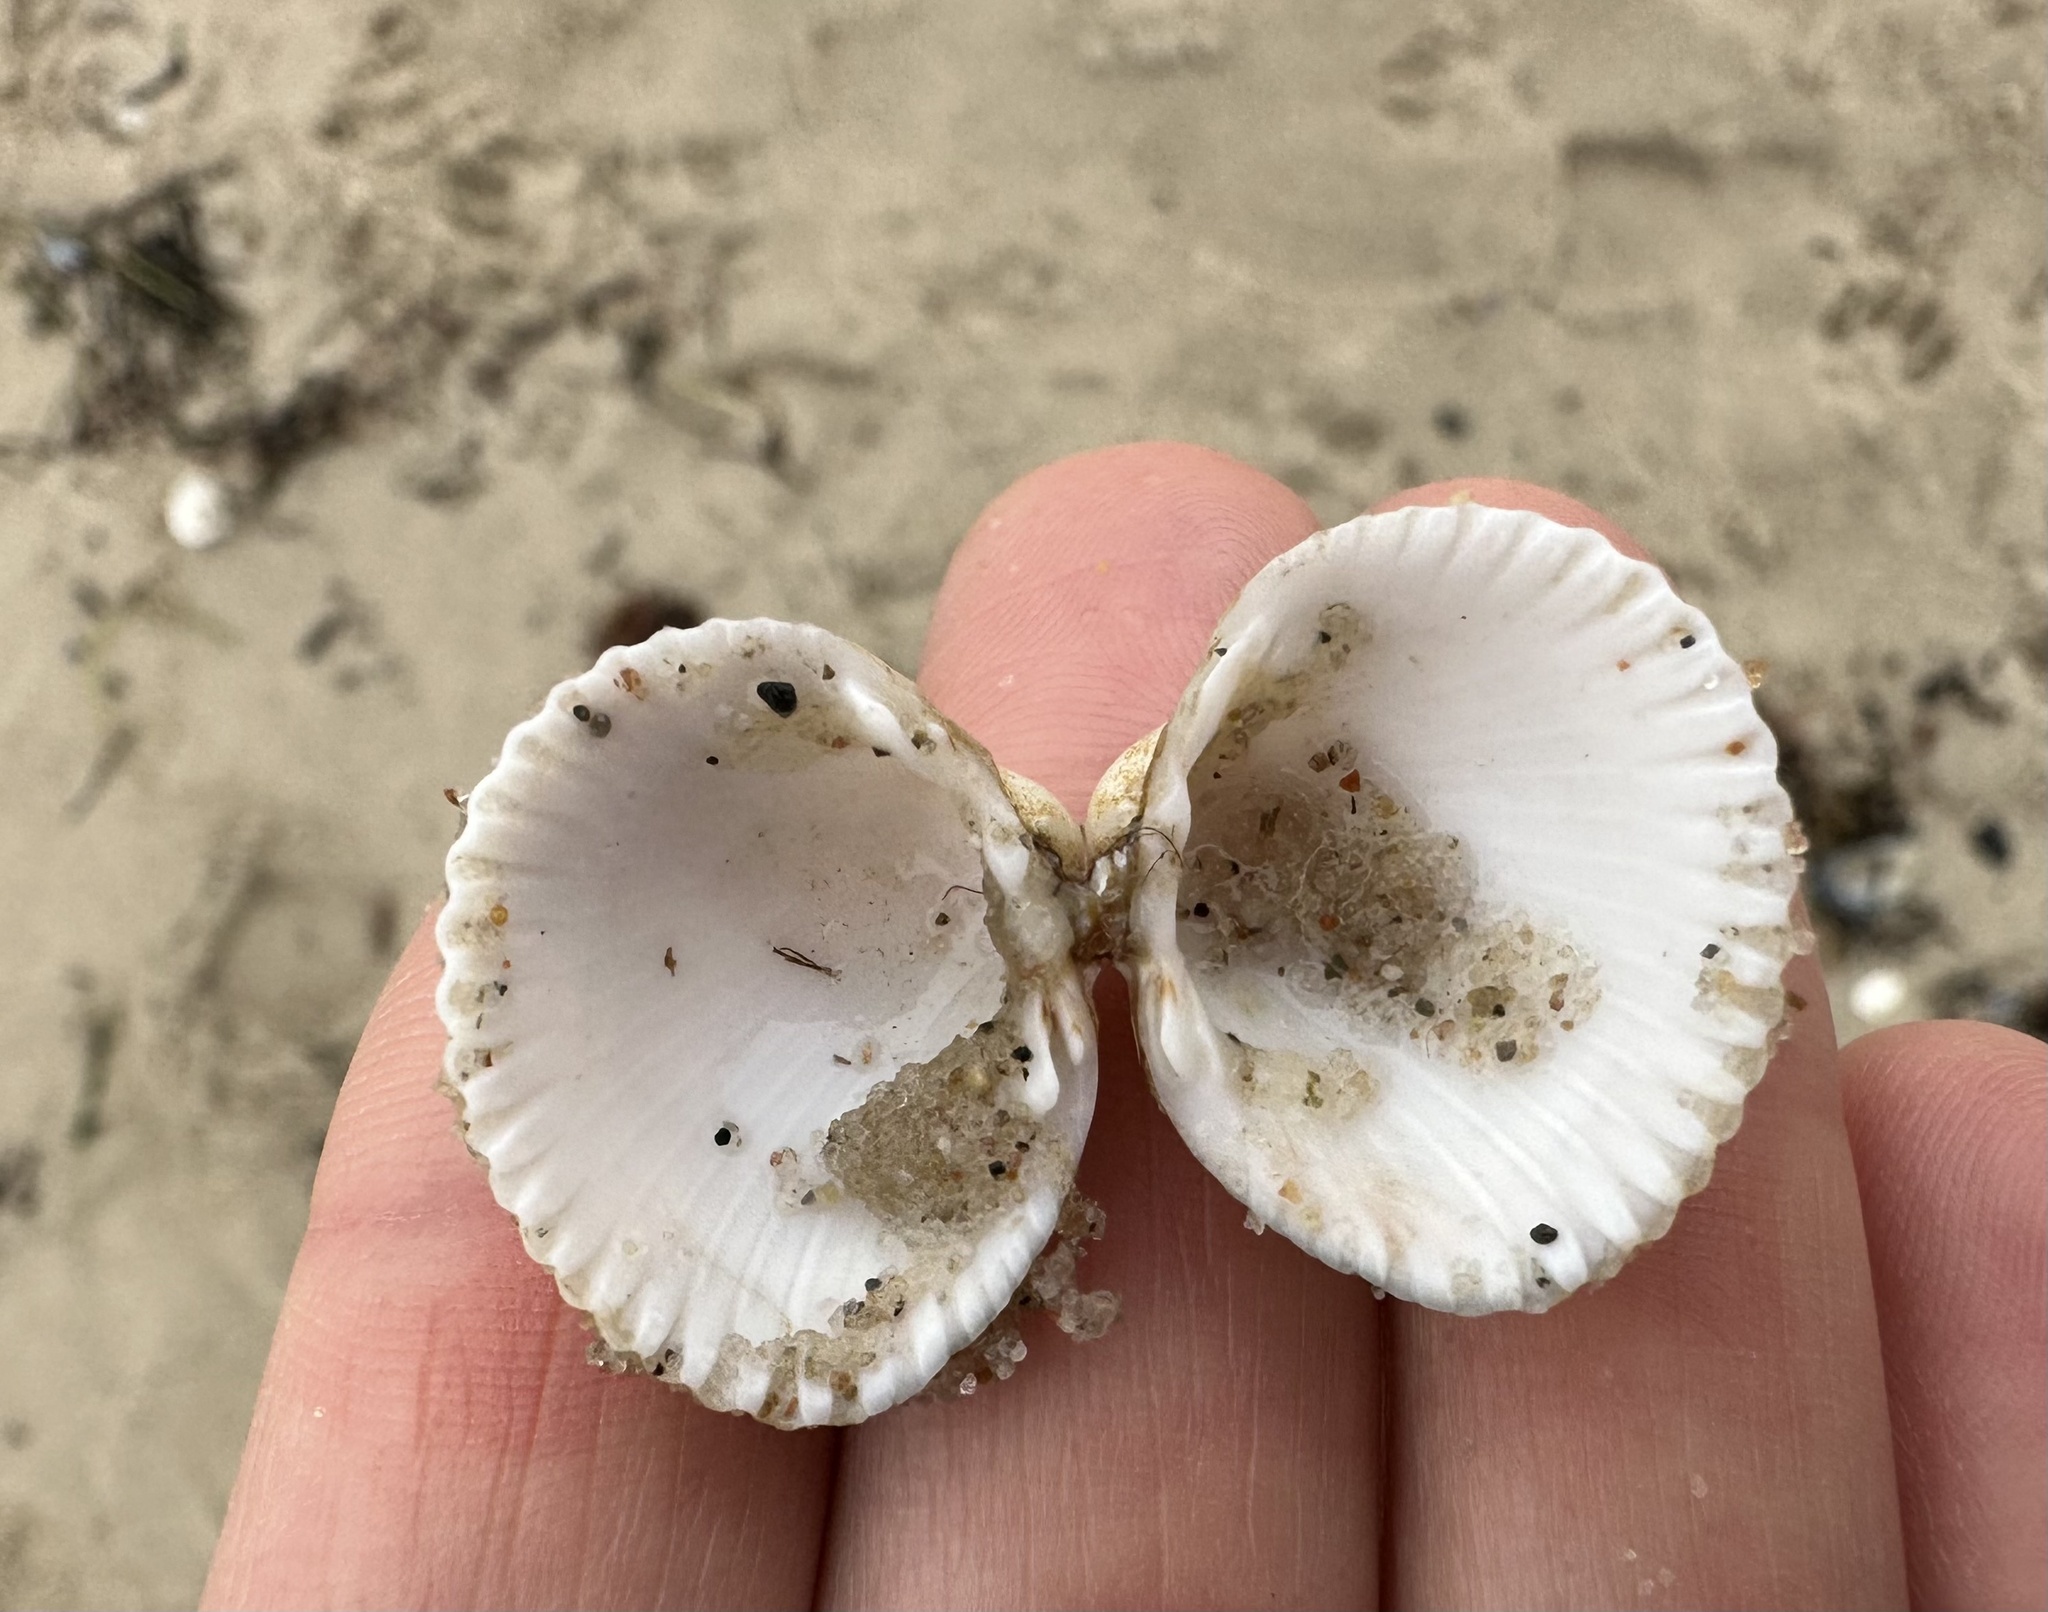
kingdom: Animalia
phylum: Mollusca
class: Bivalvia
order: Cardiida
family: Cardiidae
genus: Cerastoderma
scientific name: Cerastoderma edule
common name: Common cockle
